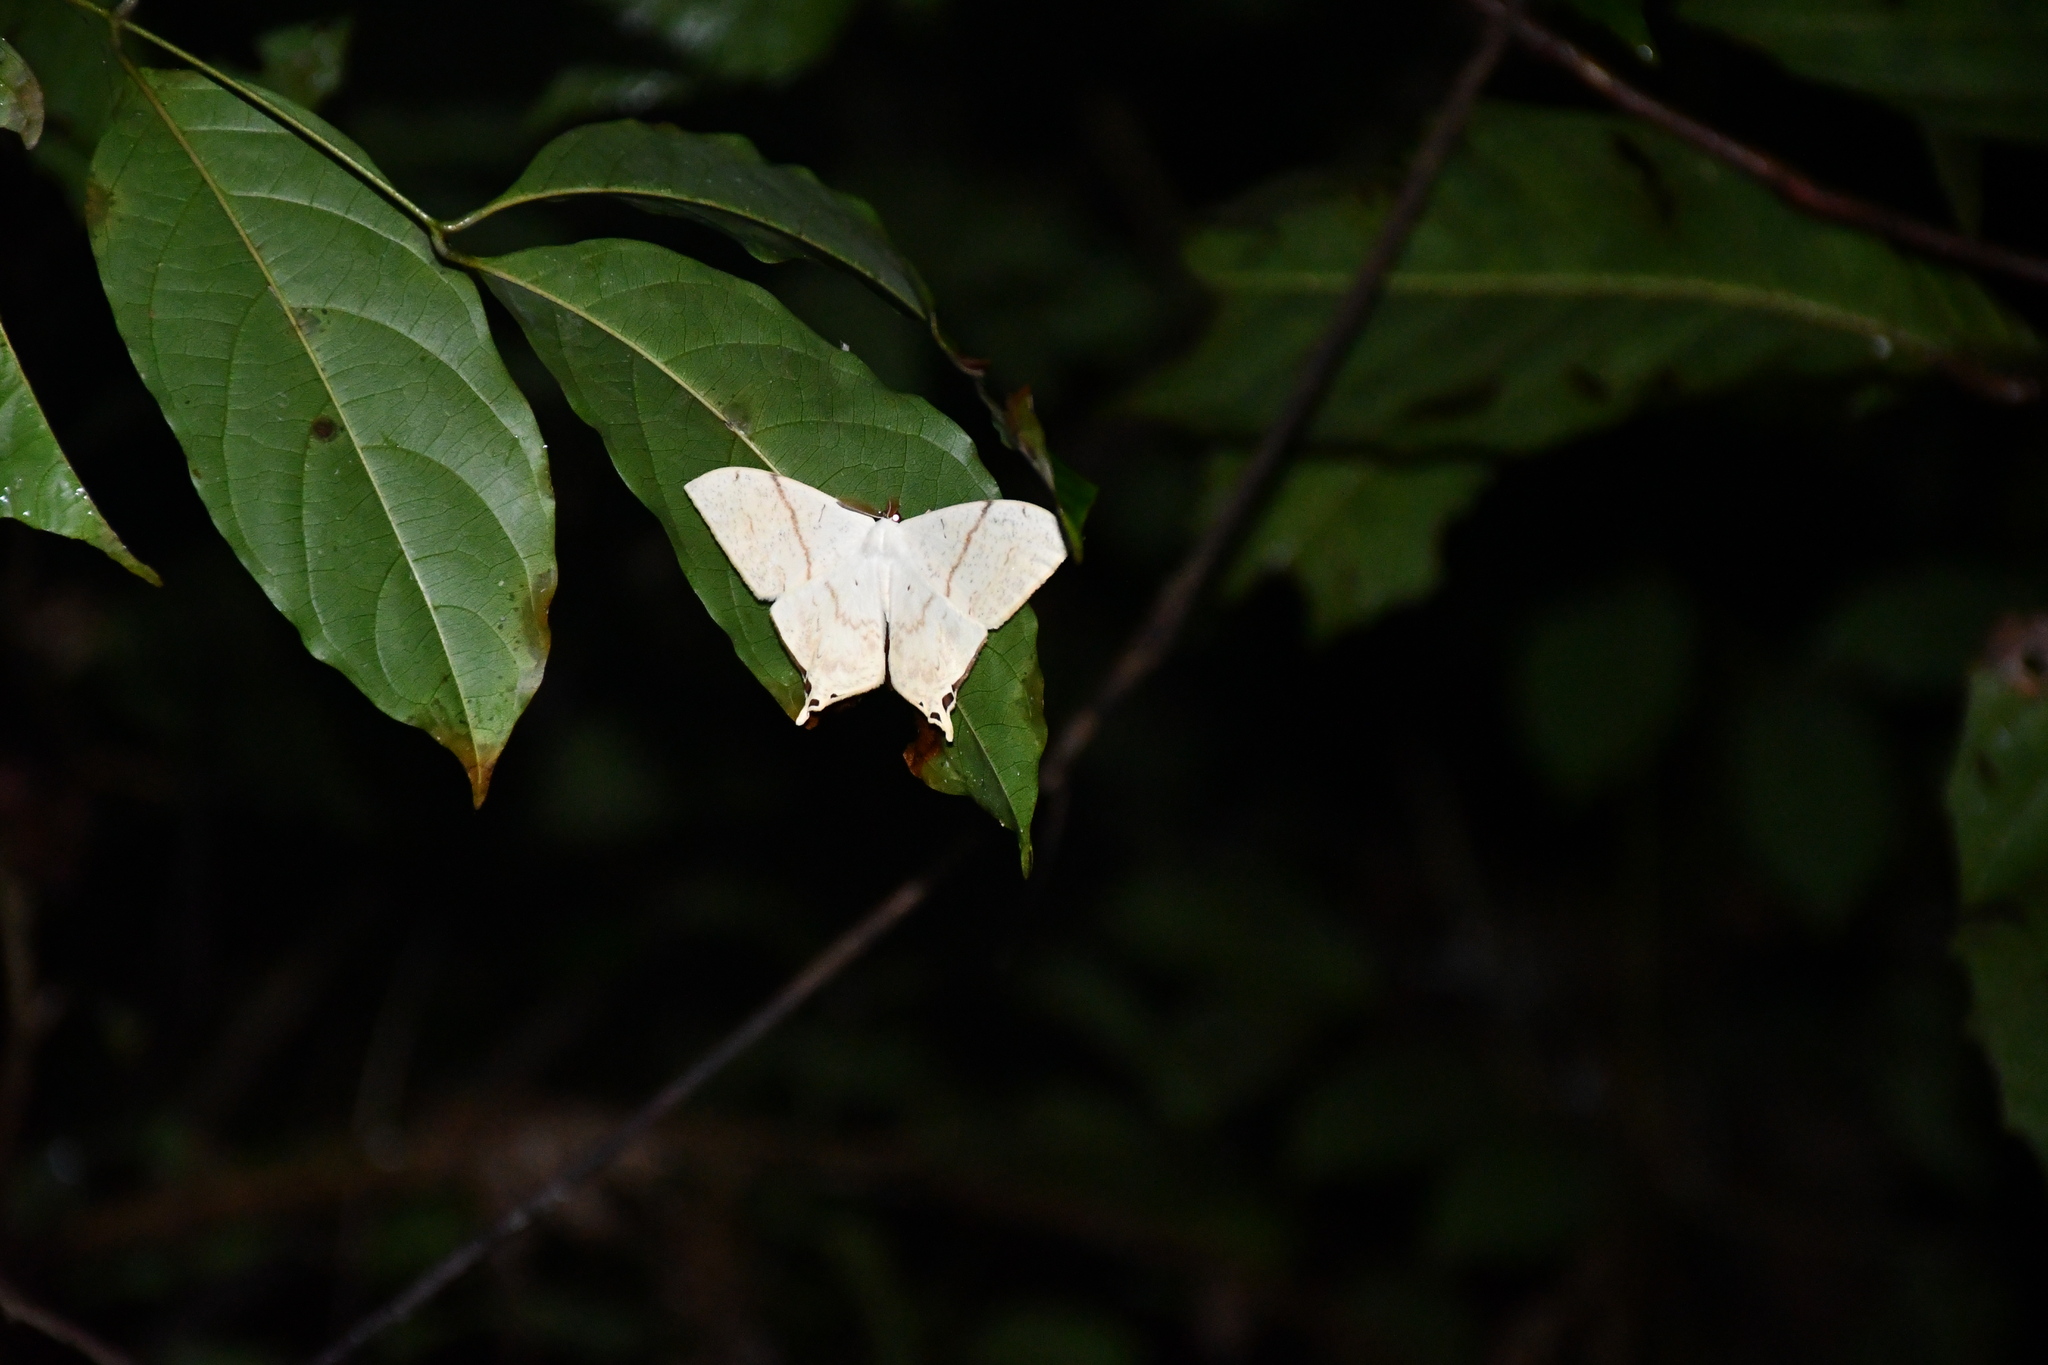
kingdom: Animalia
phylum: Arthropoda
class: Insecta
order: Lepidoptera
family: Saturniidae
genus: Therinia
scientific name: Therinia lactucina
